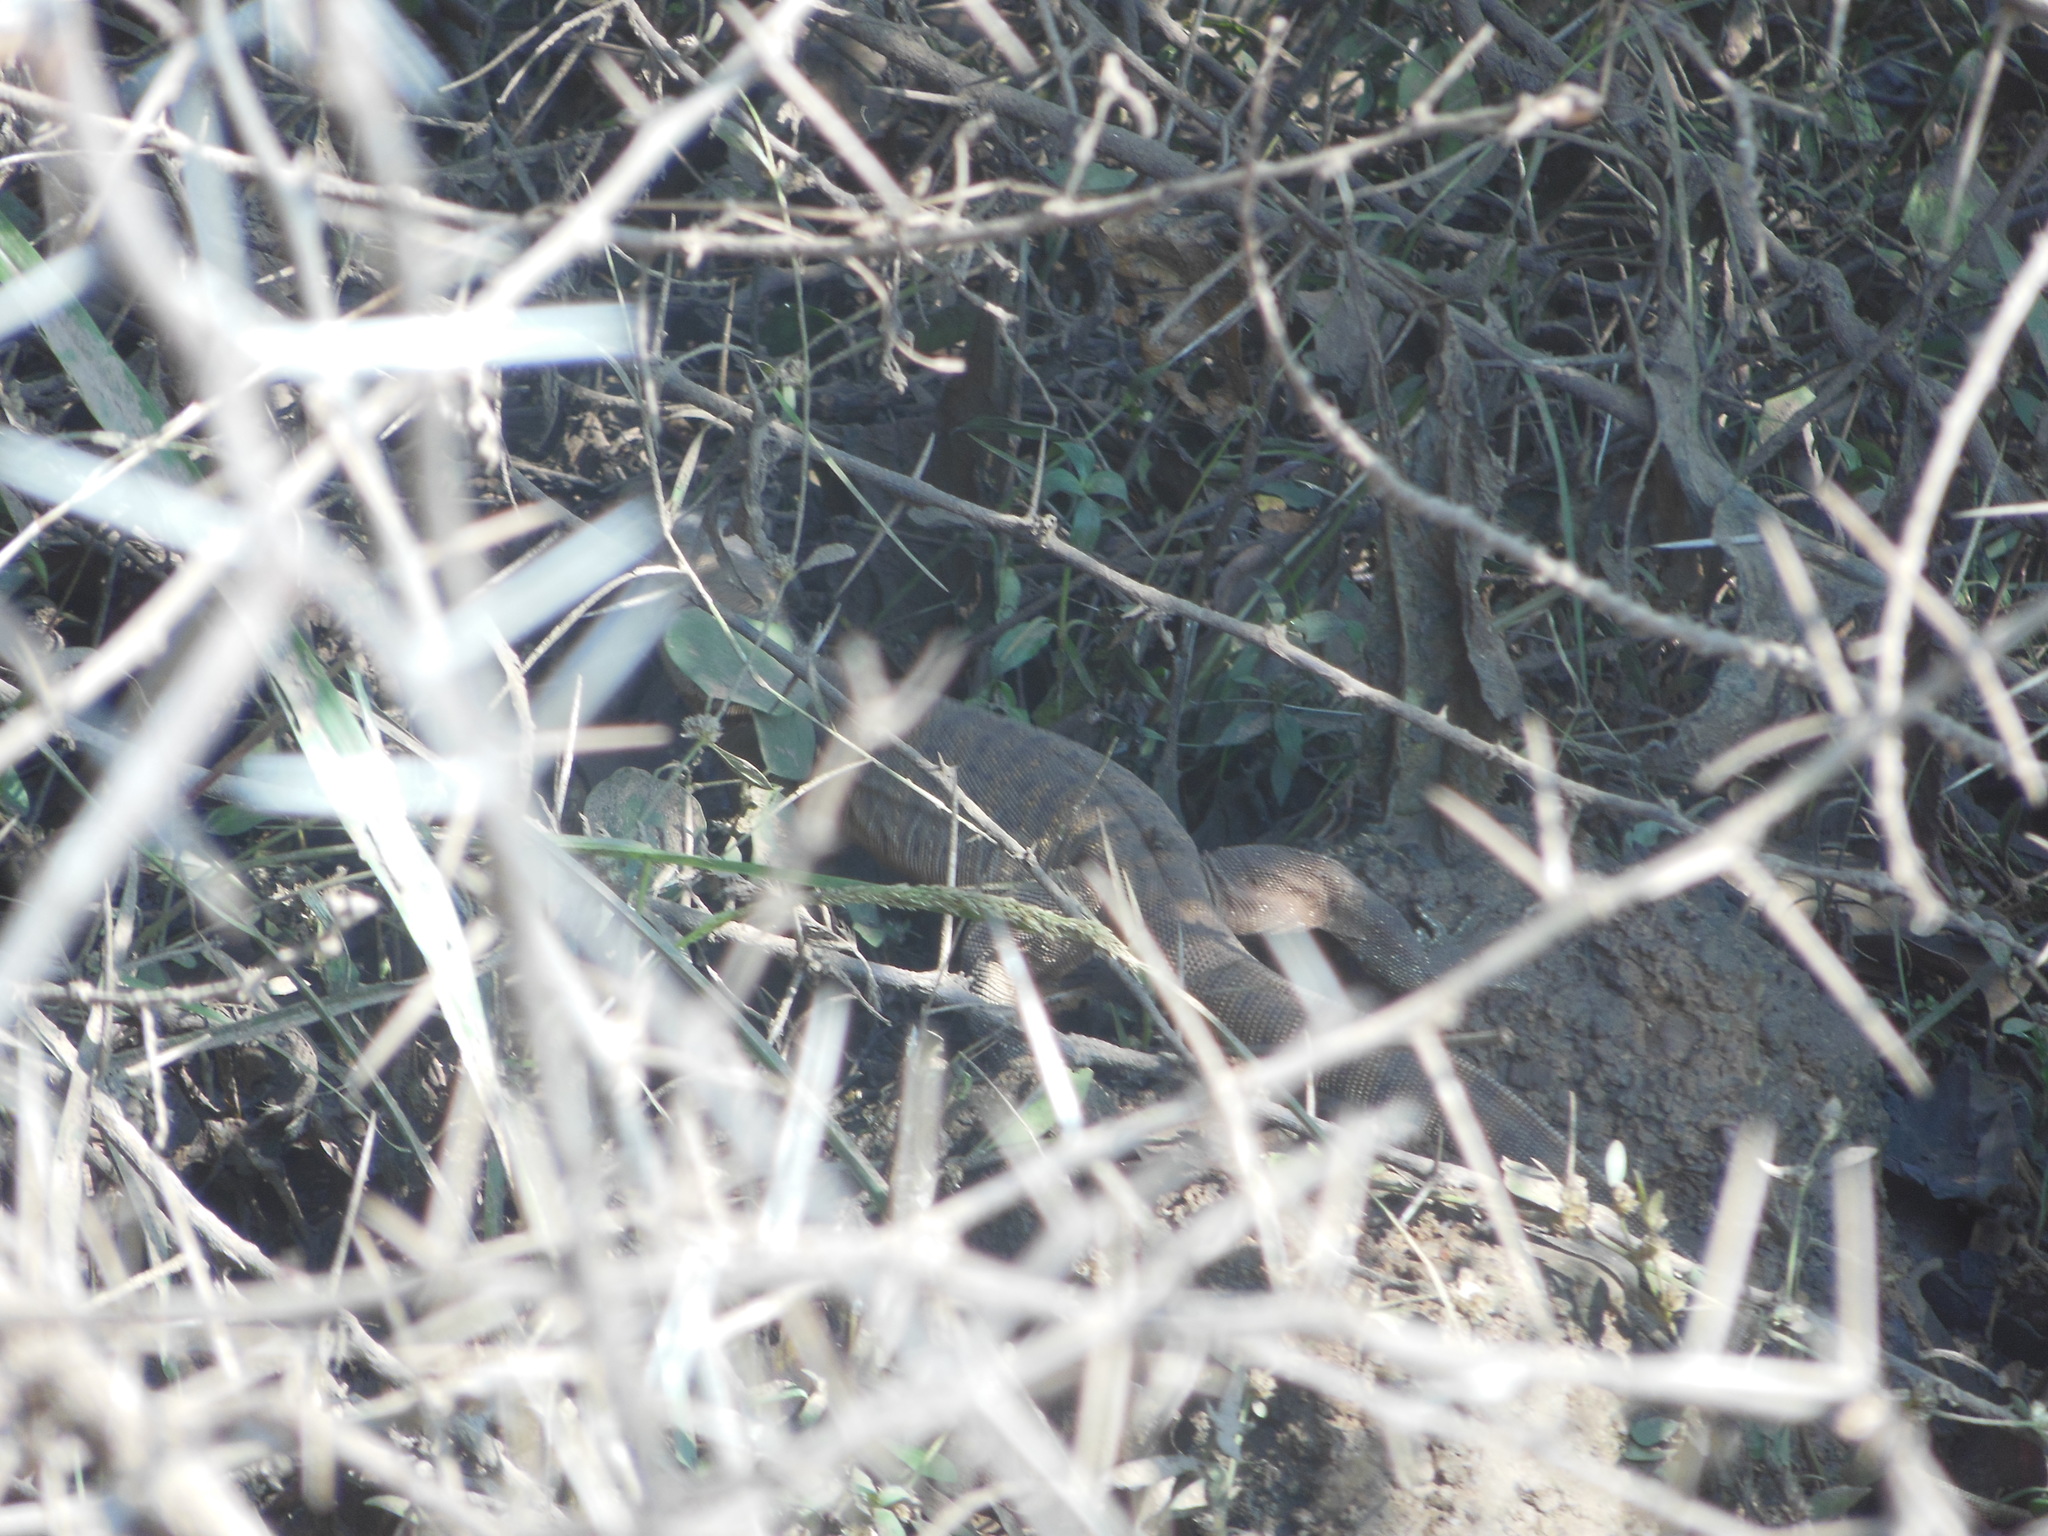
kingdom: Animalia
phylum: Chordata
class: Squamata
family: Varanidae
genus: Varanus
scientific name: Varanus bengalensis
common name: Bengal monitor
